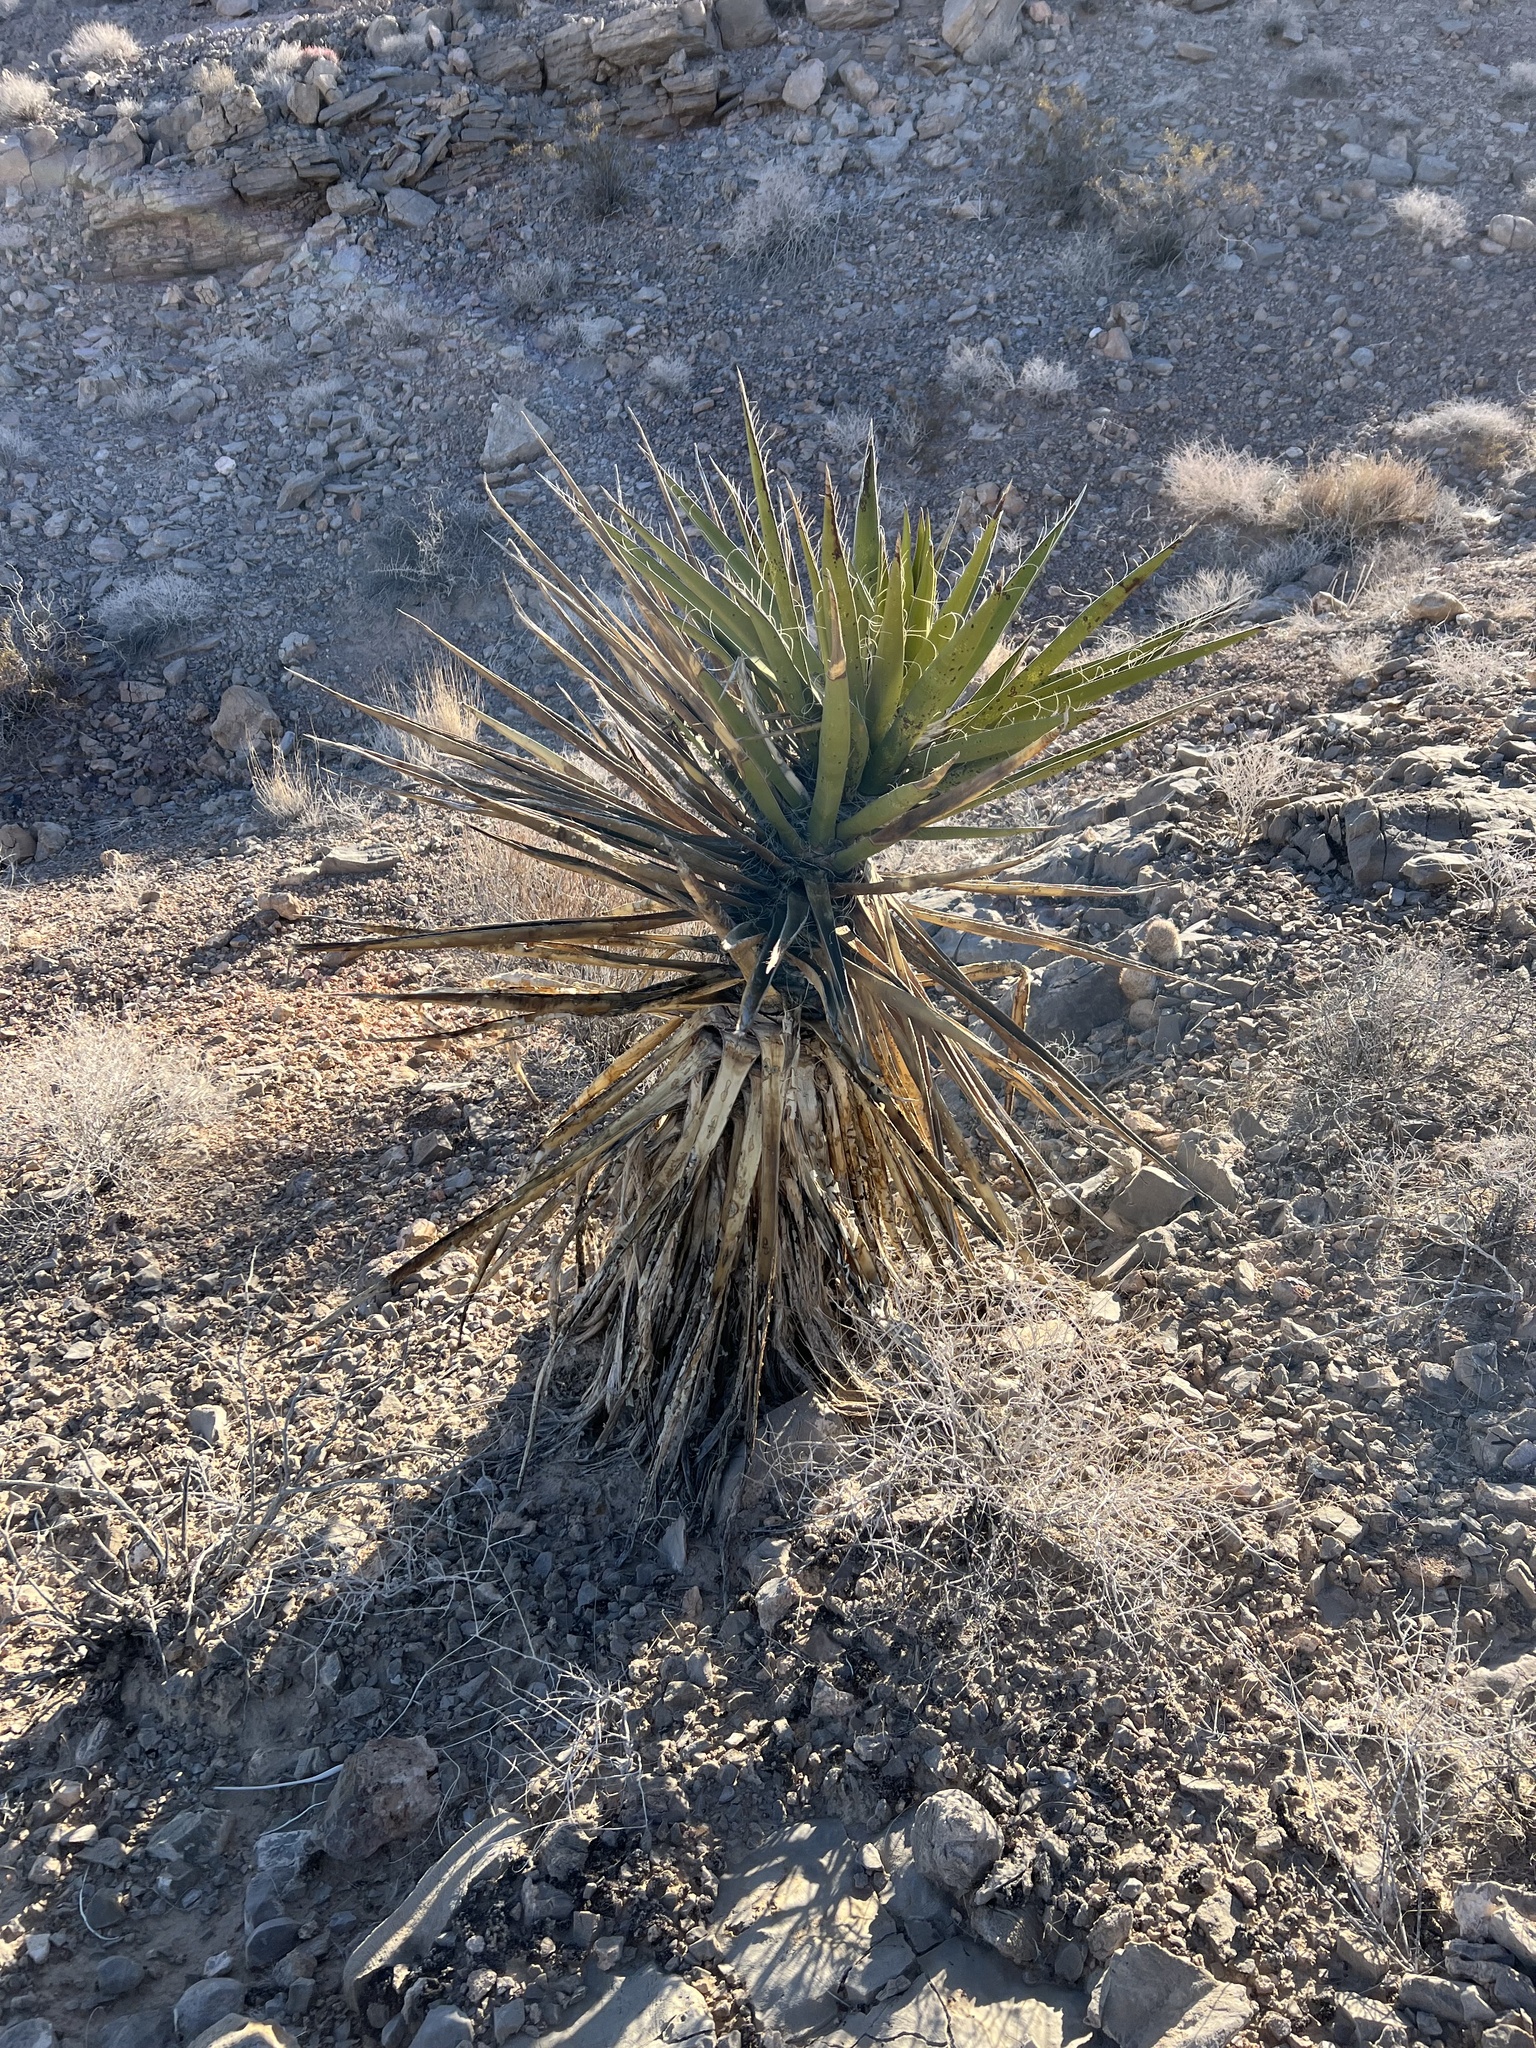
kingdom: Plantae
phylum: Tracheophyta
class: Liliopsida
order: Asparagales
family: Asparagaceae
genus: Yucca
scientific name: Yucca schidigera
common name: Mojave yucca
